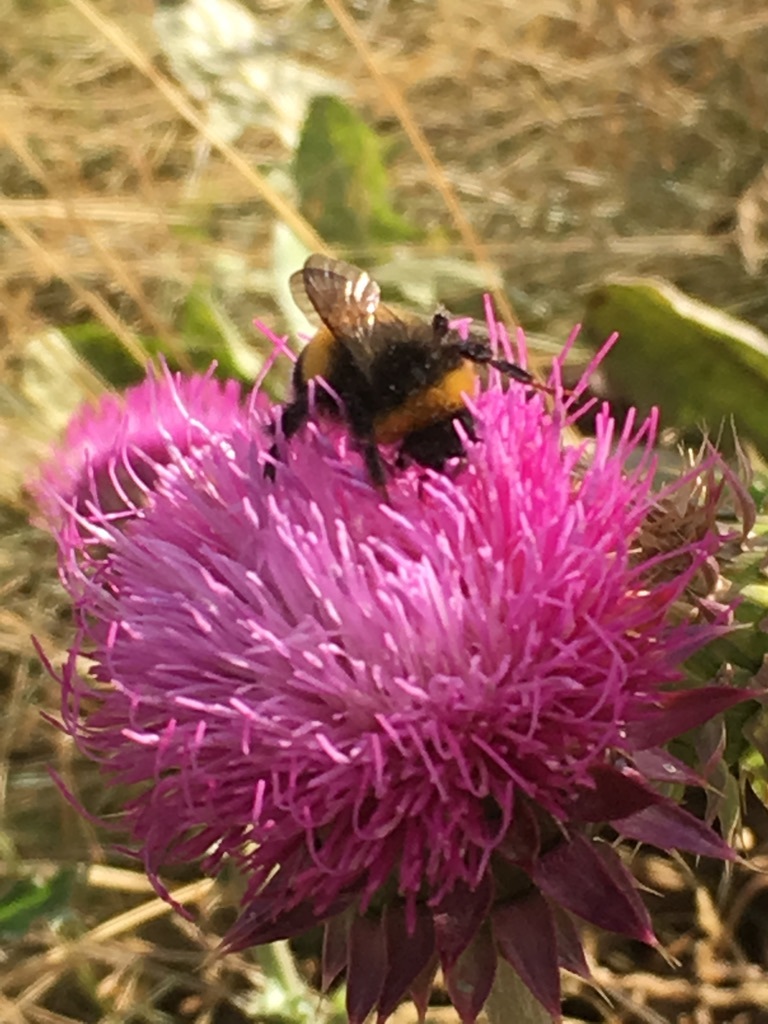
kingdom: Animalia
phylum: Arthropoda
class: Insecta
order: Hymenoptera
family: Apidae
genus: Bombus
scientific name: Bombus terrestris
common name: Buff-tailed bumblebee
